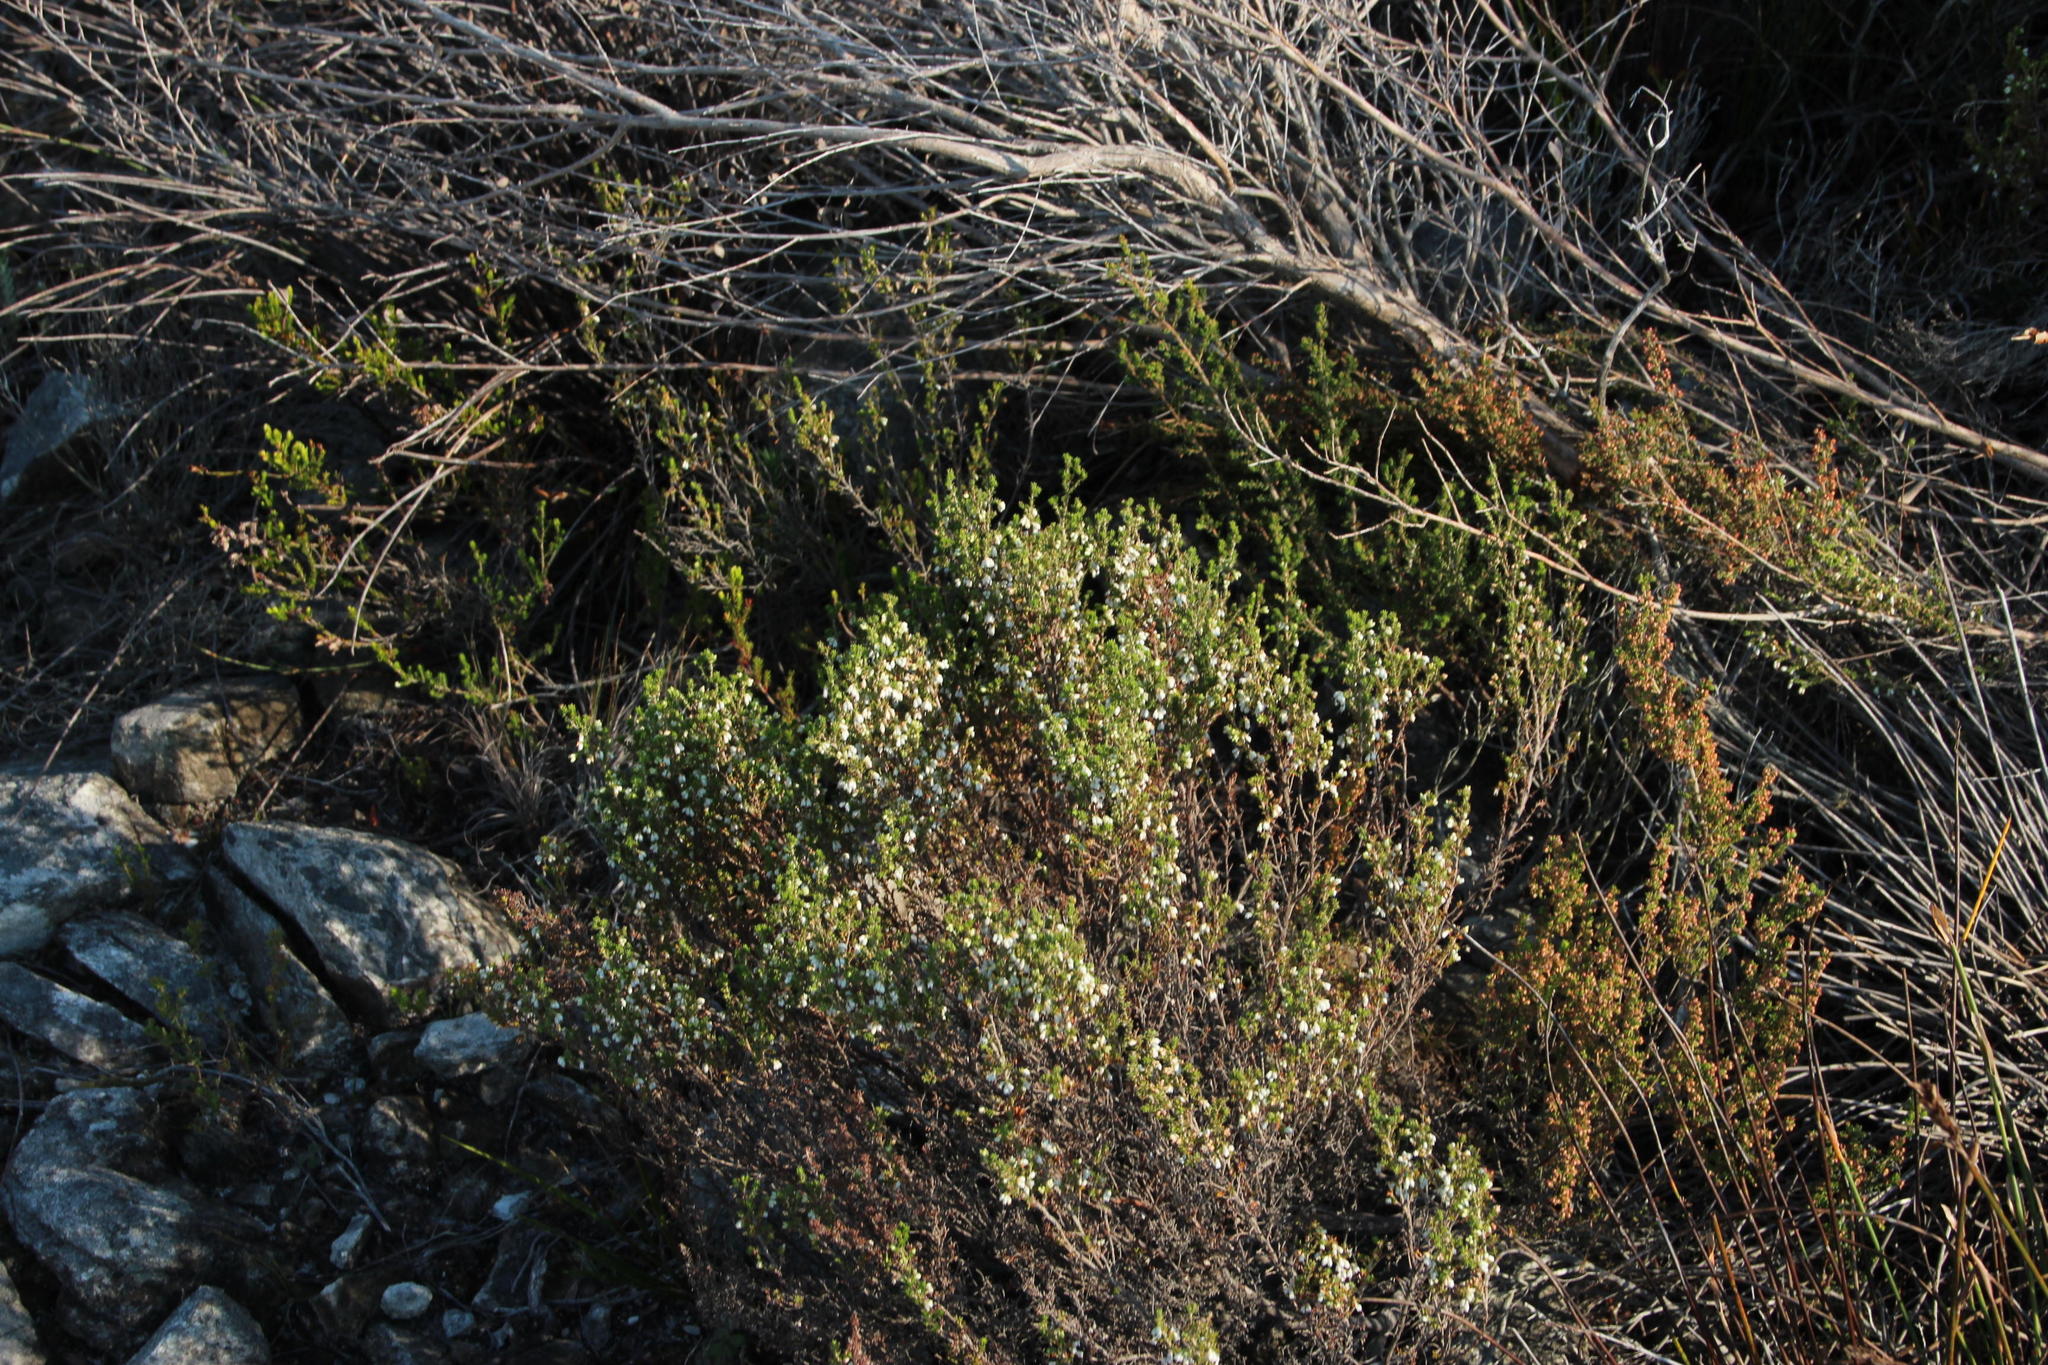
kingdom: Plantae
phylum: Tracheophyta
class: Magnoliopsida
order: Ericales
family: Ericaceae
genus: Erica
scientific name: Erica imbricata
